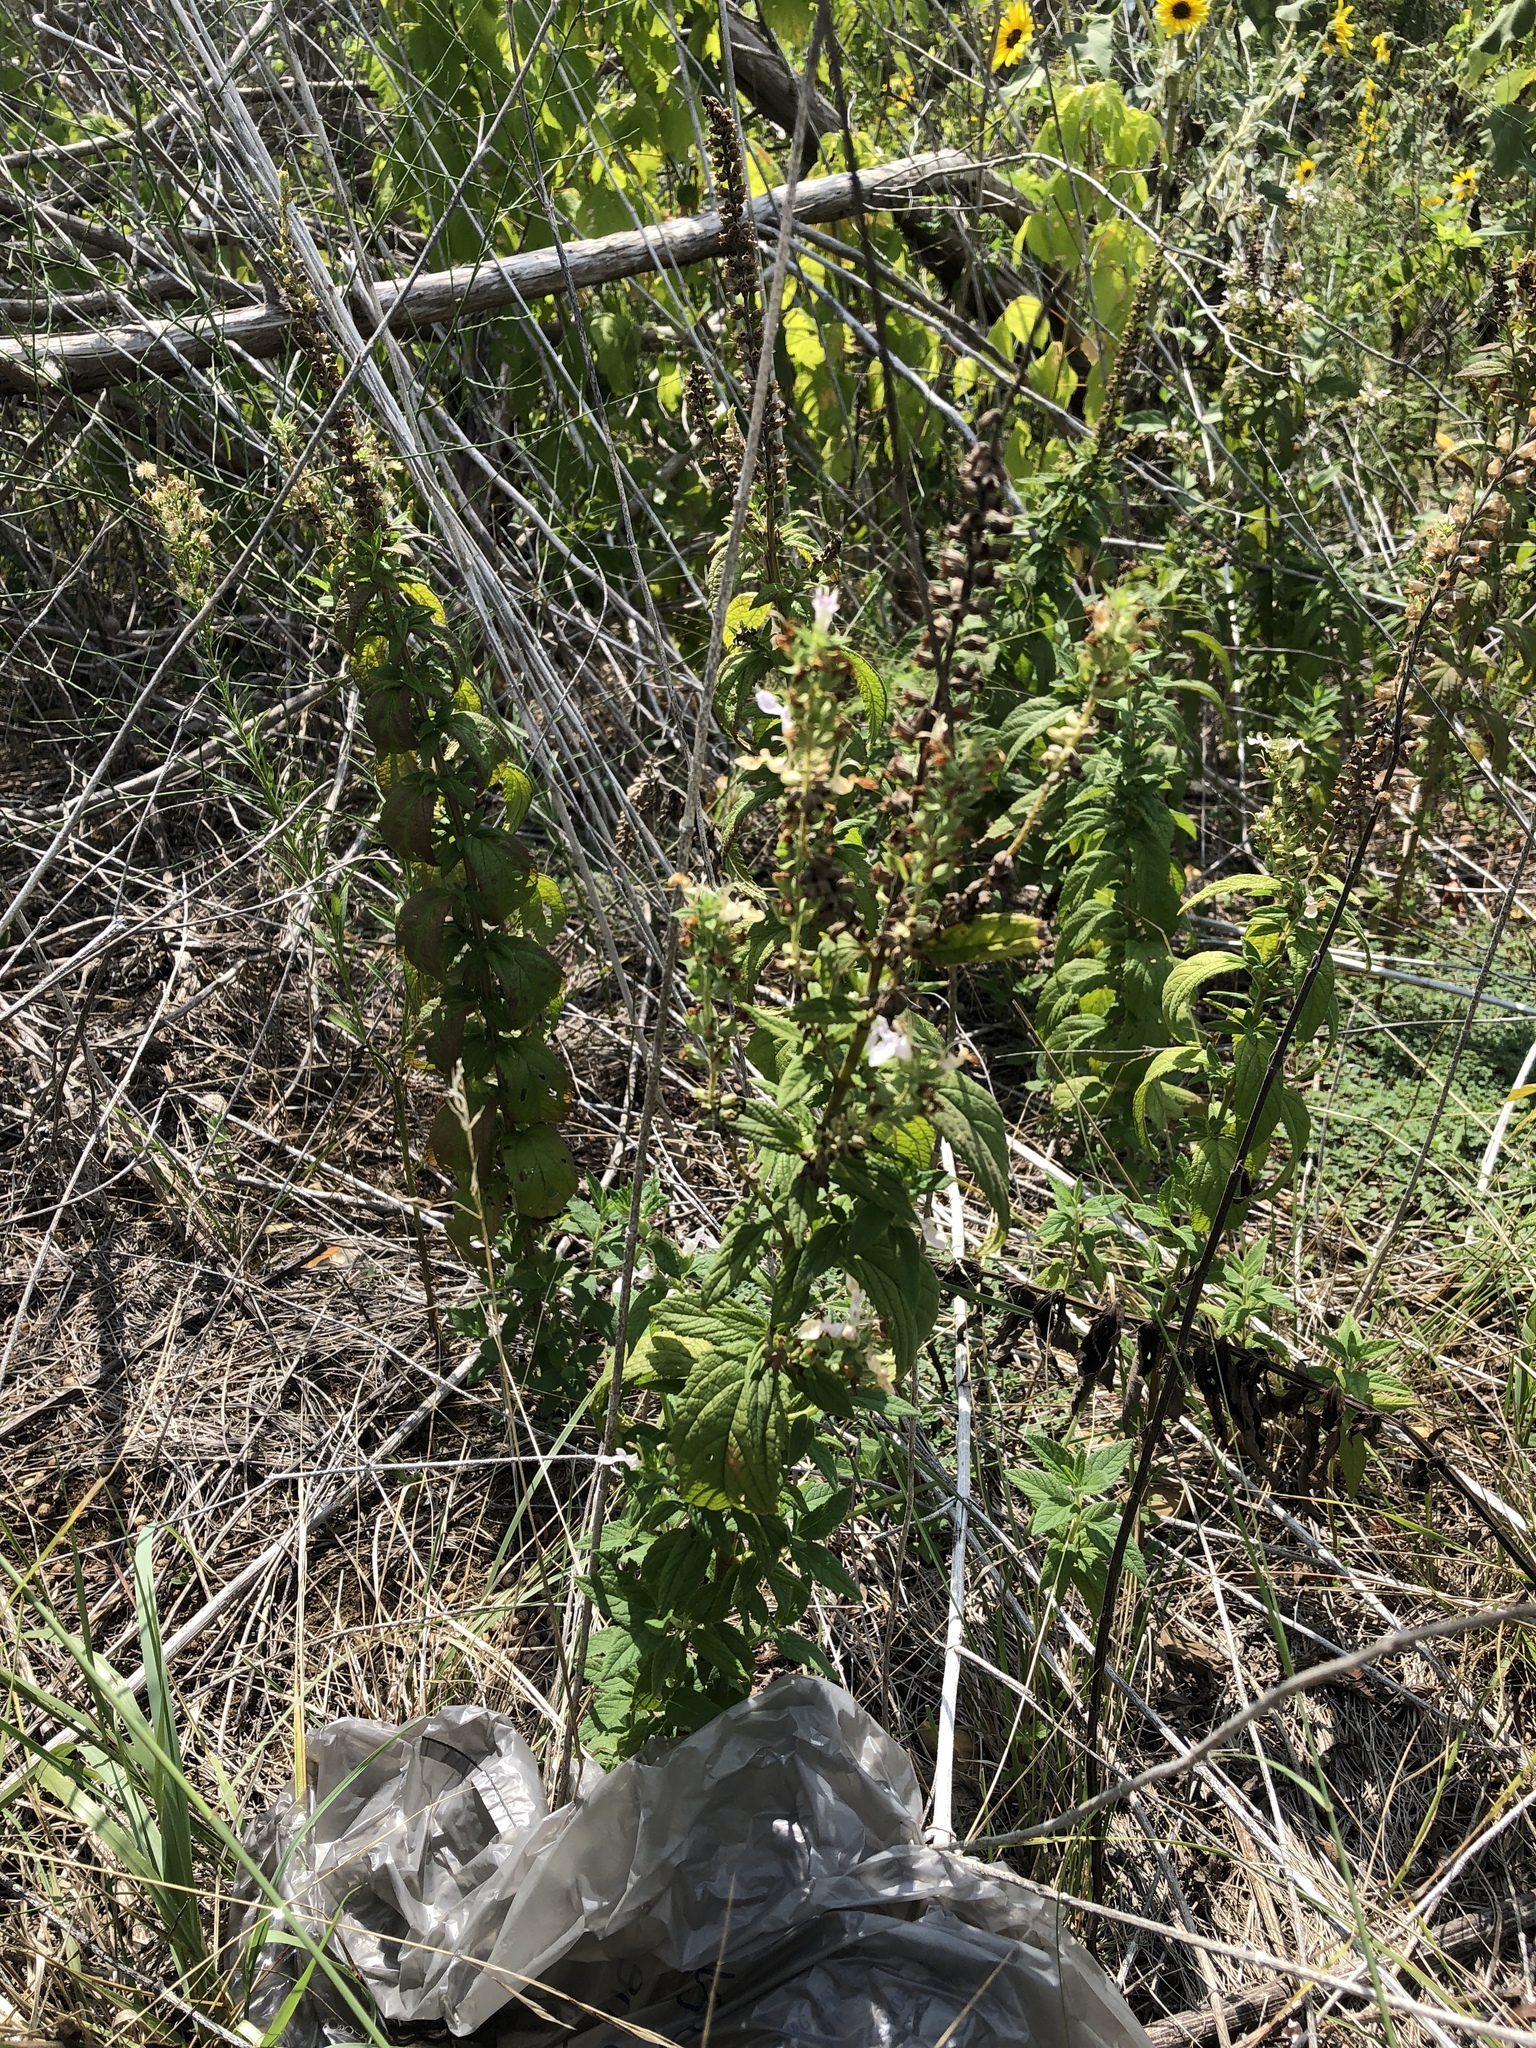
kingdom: Plantae
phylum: Tracheophyta
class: Magnoliopsida
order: Lamiales
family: Lamiaceae
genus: Teucrium
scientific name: Teucrium canadense
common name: American germander
